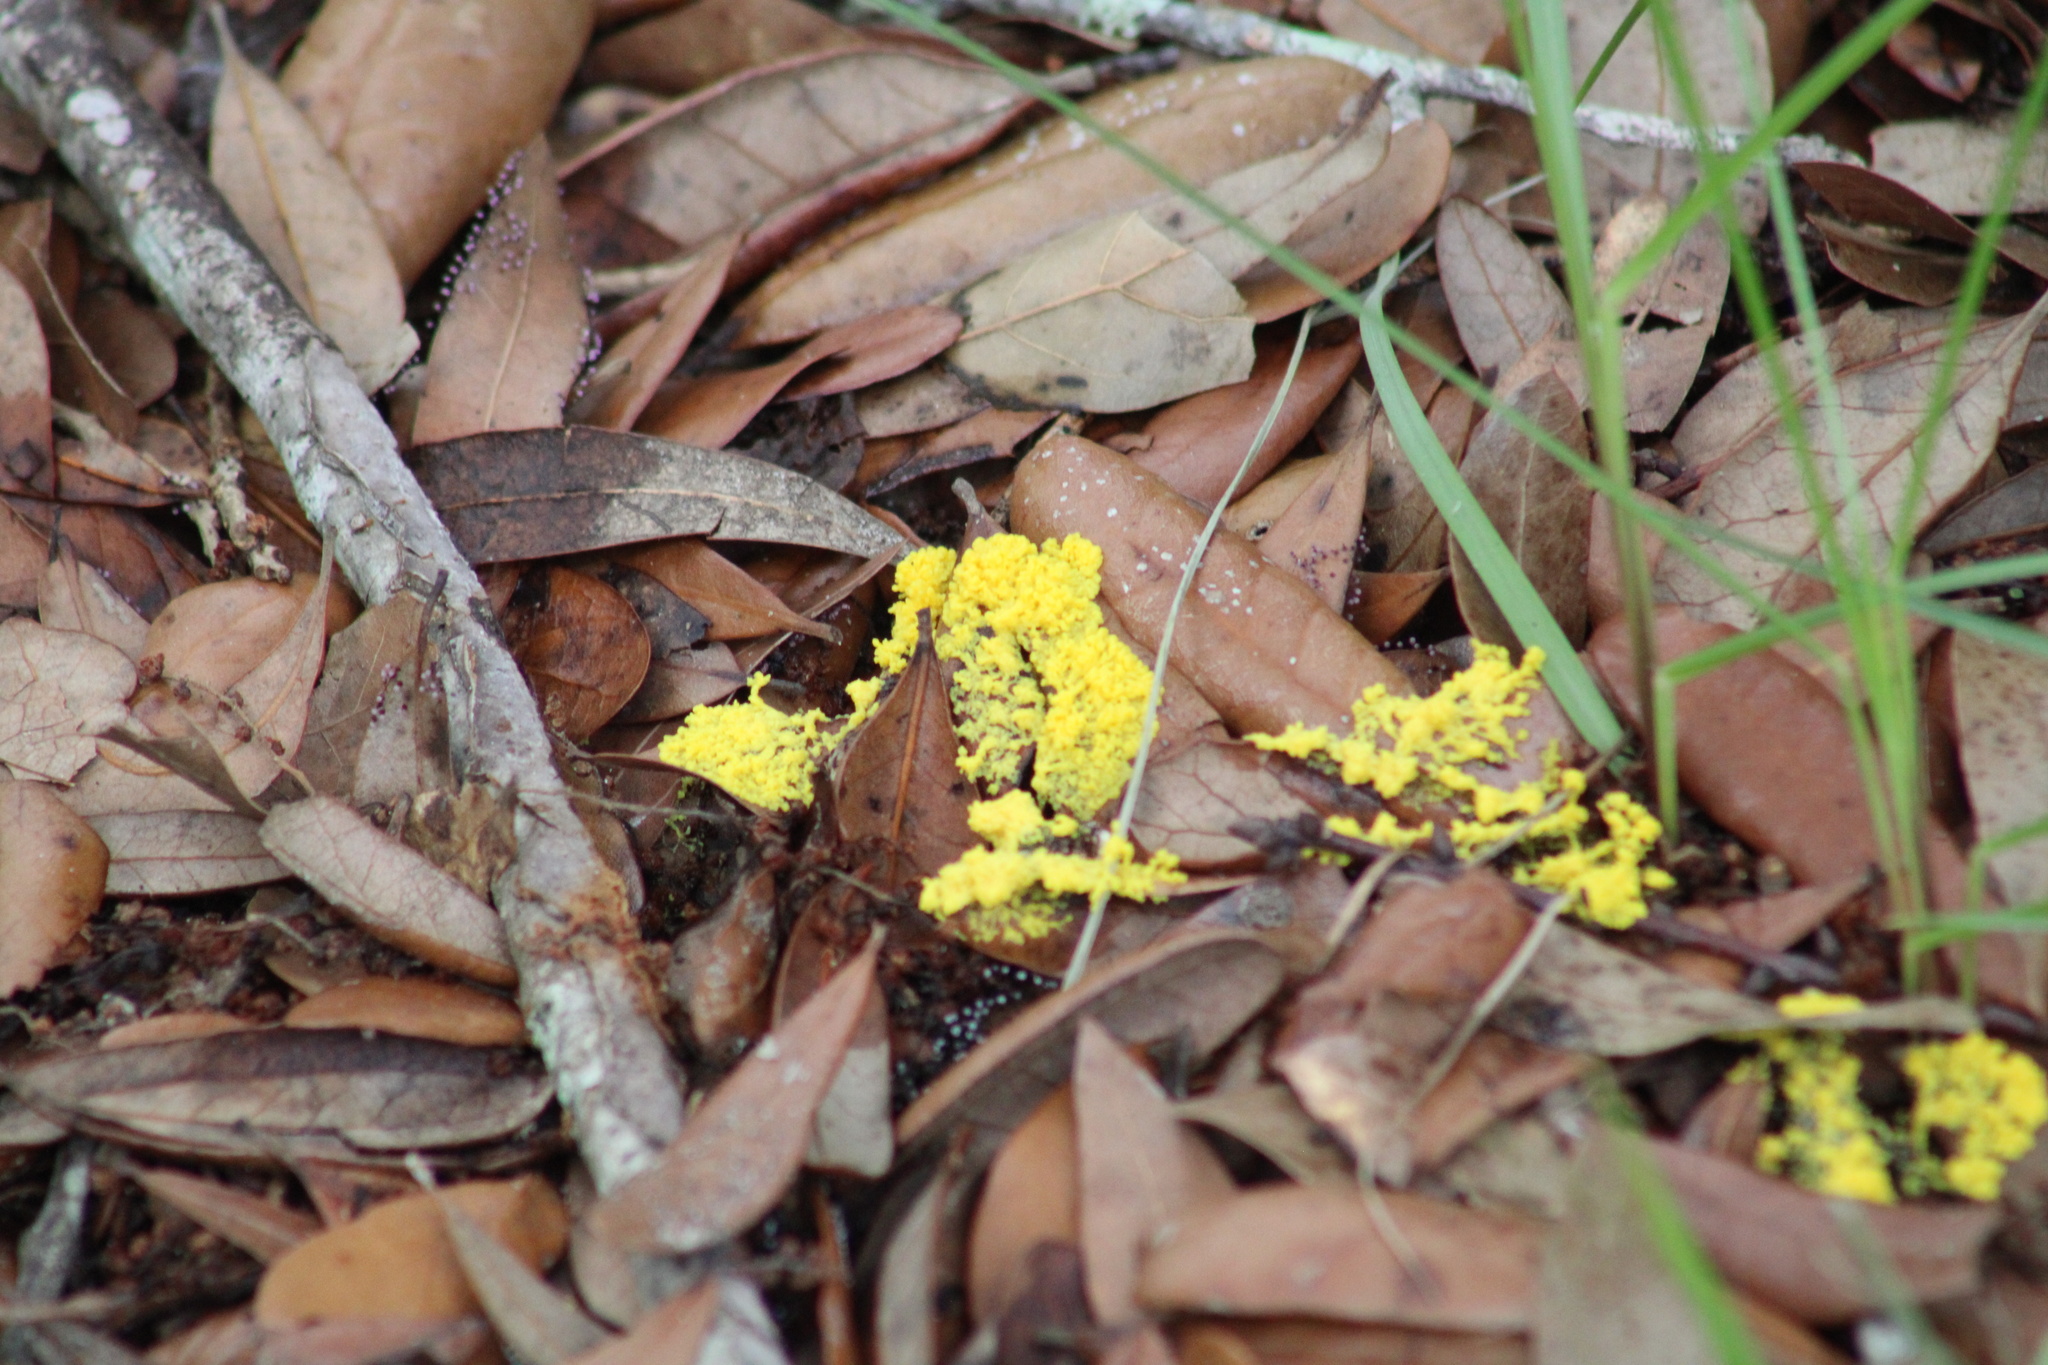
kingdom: Protozoa
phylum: Mycetozoa
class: Myxomycetes
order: Physarales
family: Physaraceae
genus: Fuligo
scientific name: Fuligo septica
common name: Dog vomit slime mold
